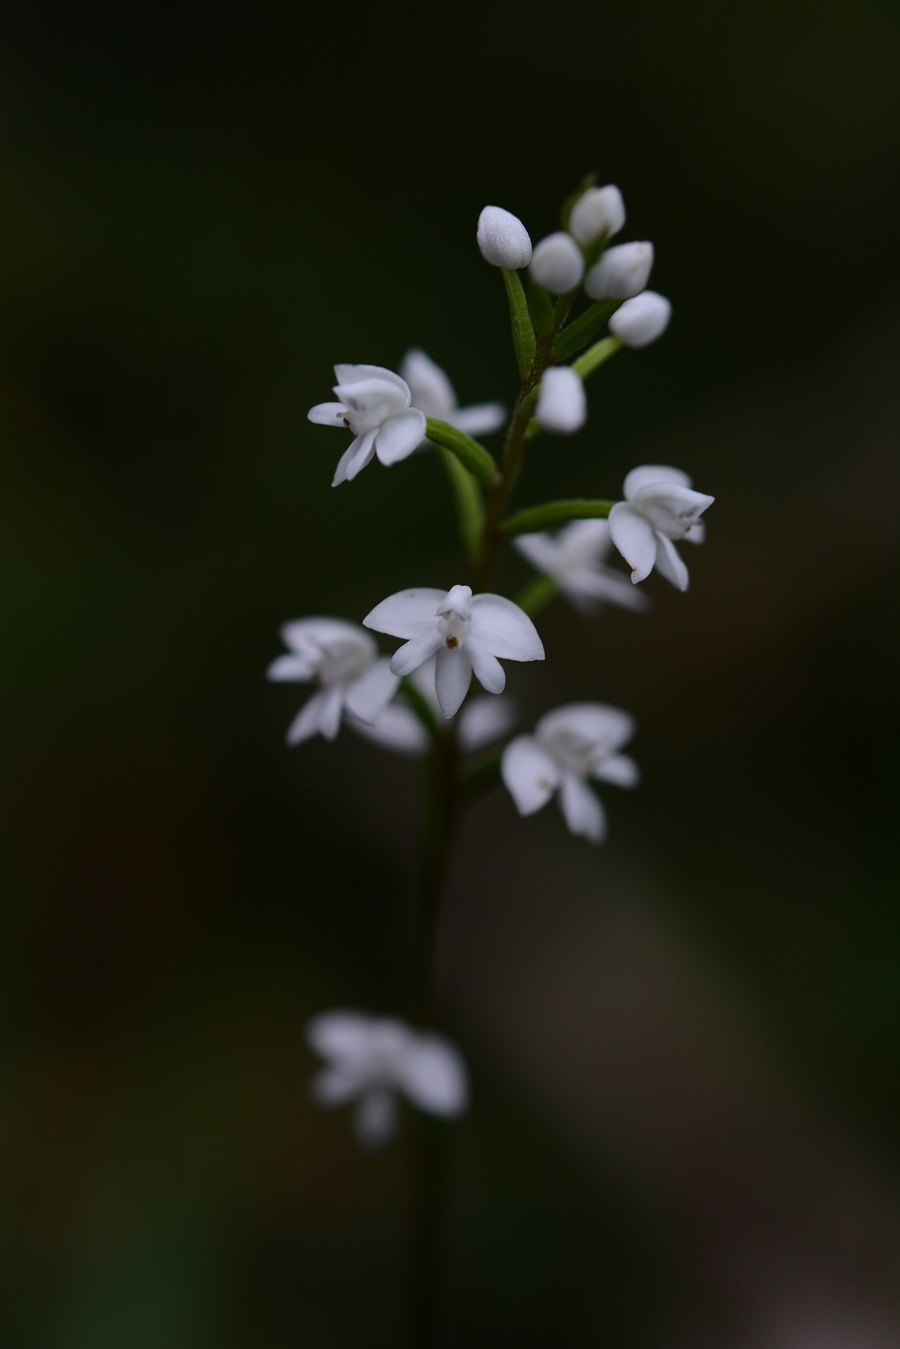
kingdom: Plantae
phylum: Tracheophyta
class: Liliopsida
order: Asparagales
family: Orchidaceae
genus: Cranichis
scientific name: Cranichis cochleata
